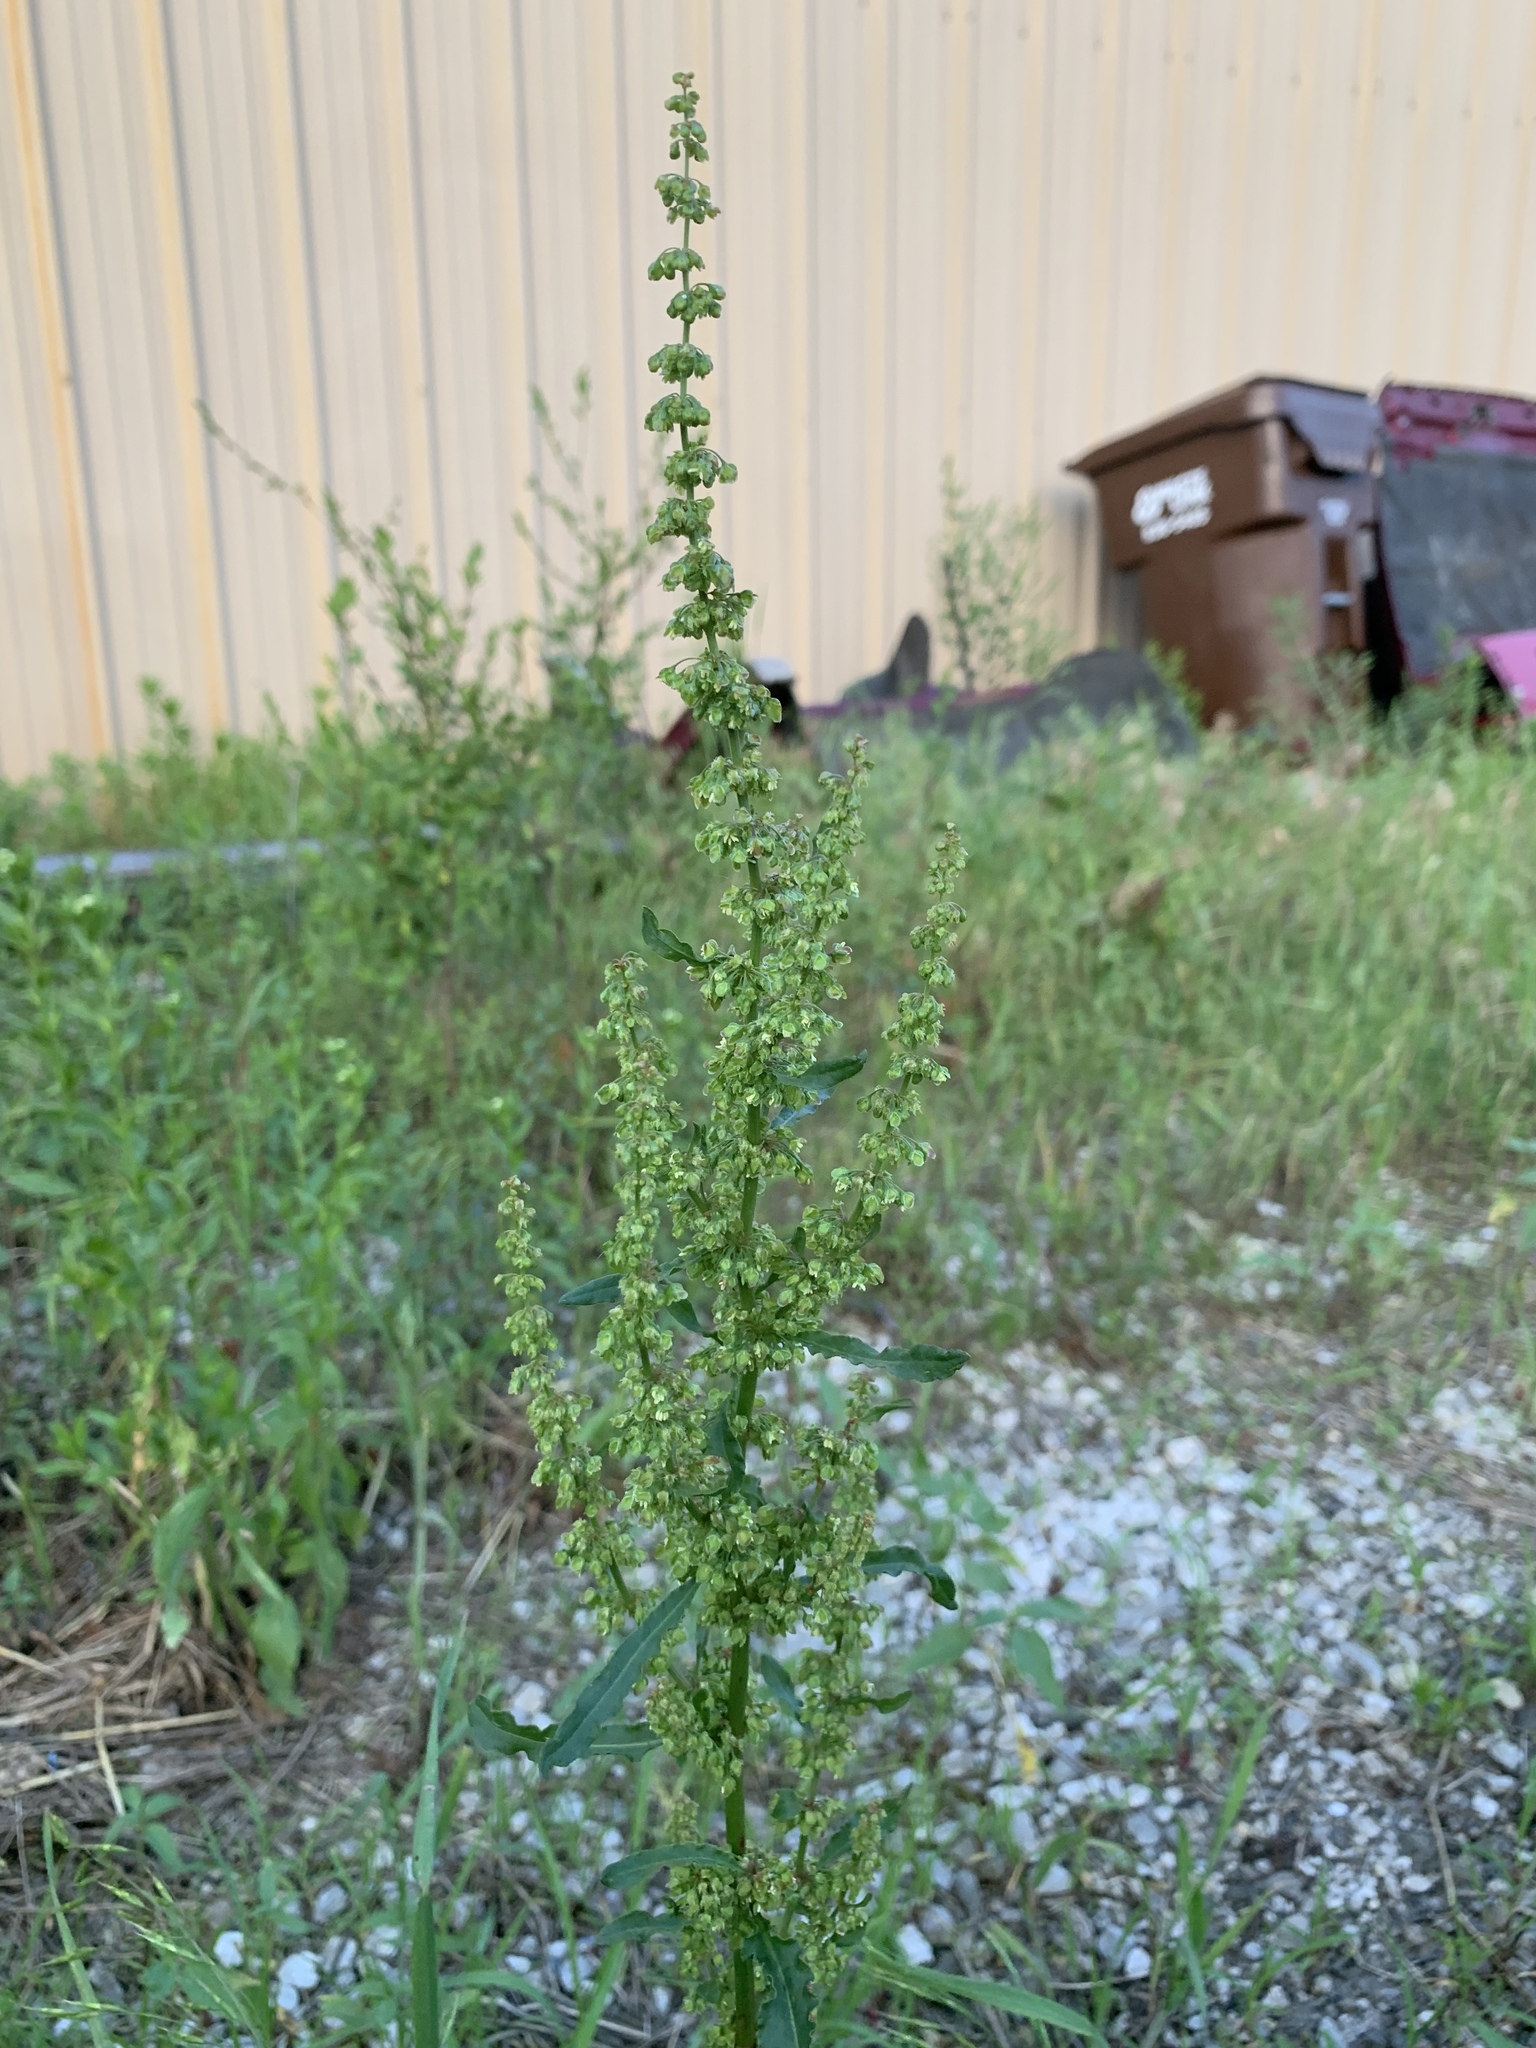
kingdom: Plantae
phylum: Tracheophyta
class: Magnoliopsida
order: Caryophyllales
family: Polygonaceae
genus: Rumex
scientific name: Rumex crispus
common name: Curled dock
